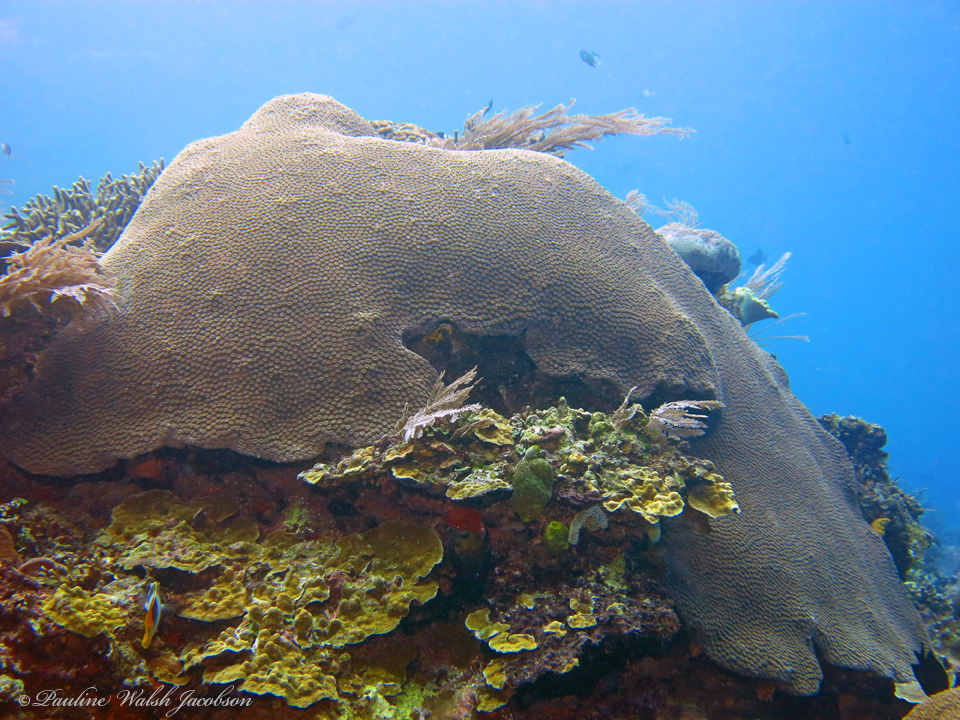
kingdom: Animalia
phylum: Cnidaria
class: Anthozoa
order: Scleractinia
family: Diploastraeidae
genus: Diploastrea
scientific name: Diploastrea heliopora
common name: Double-star coral
